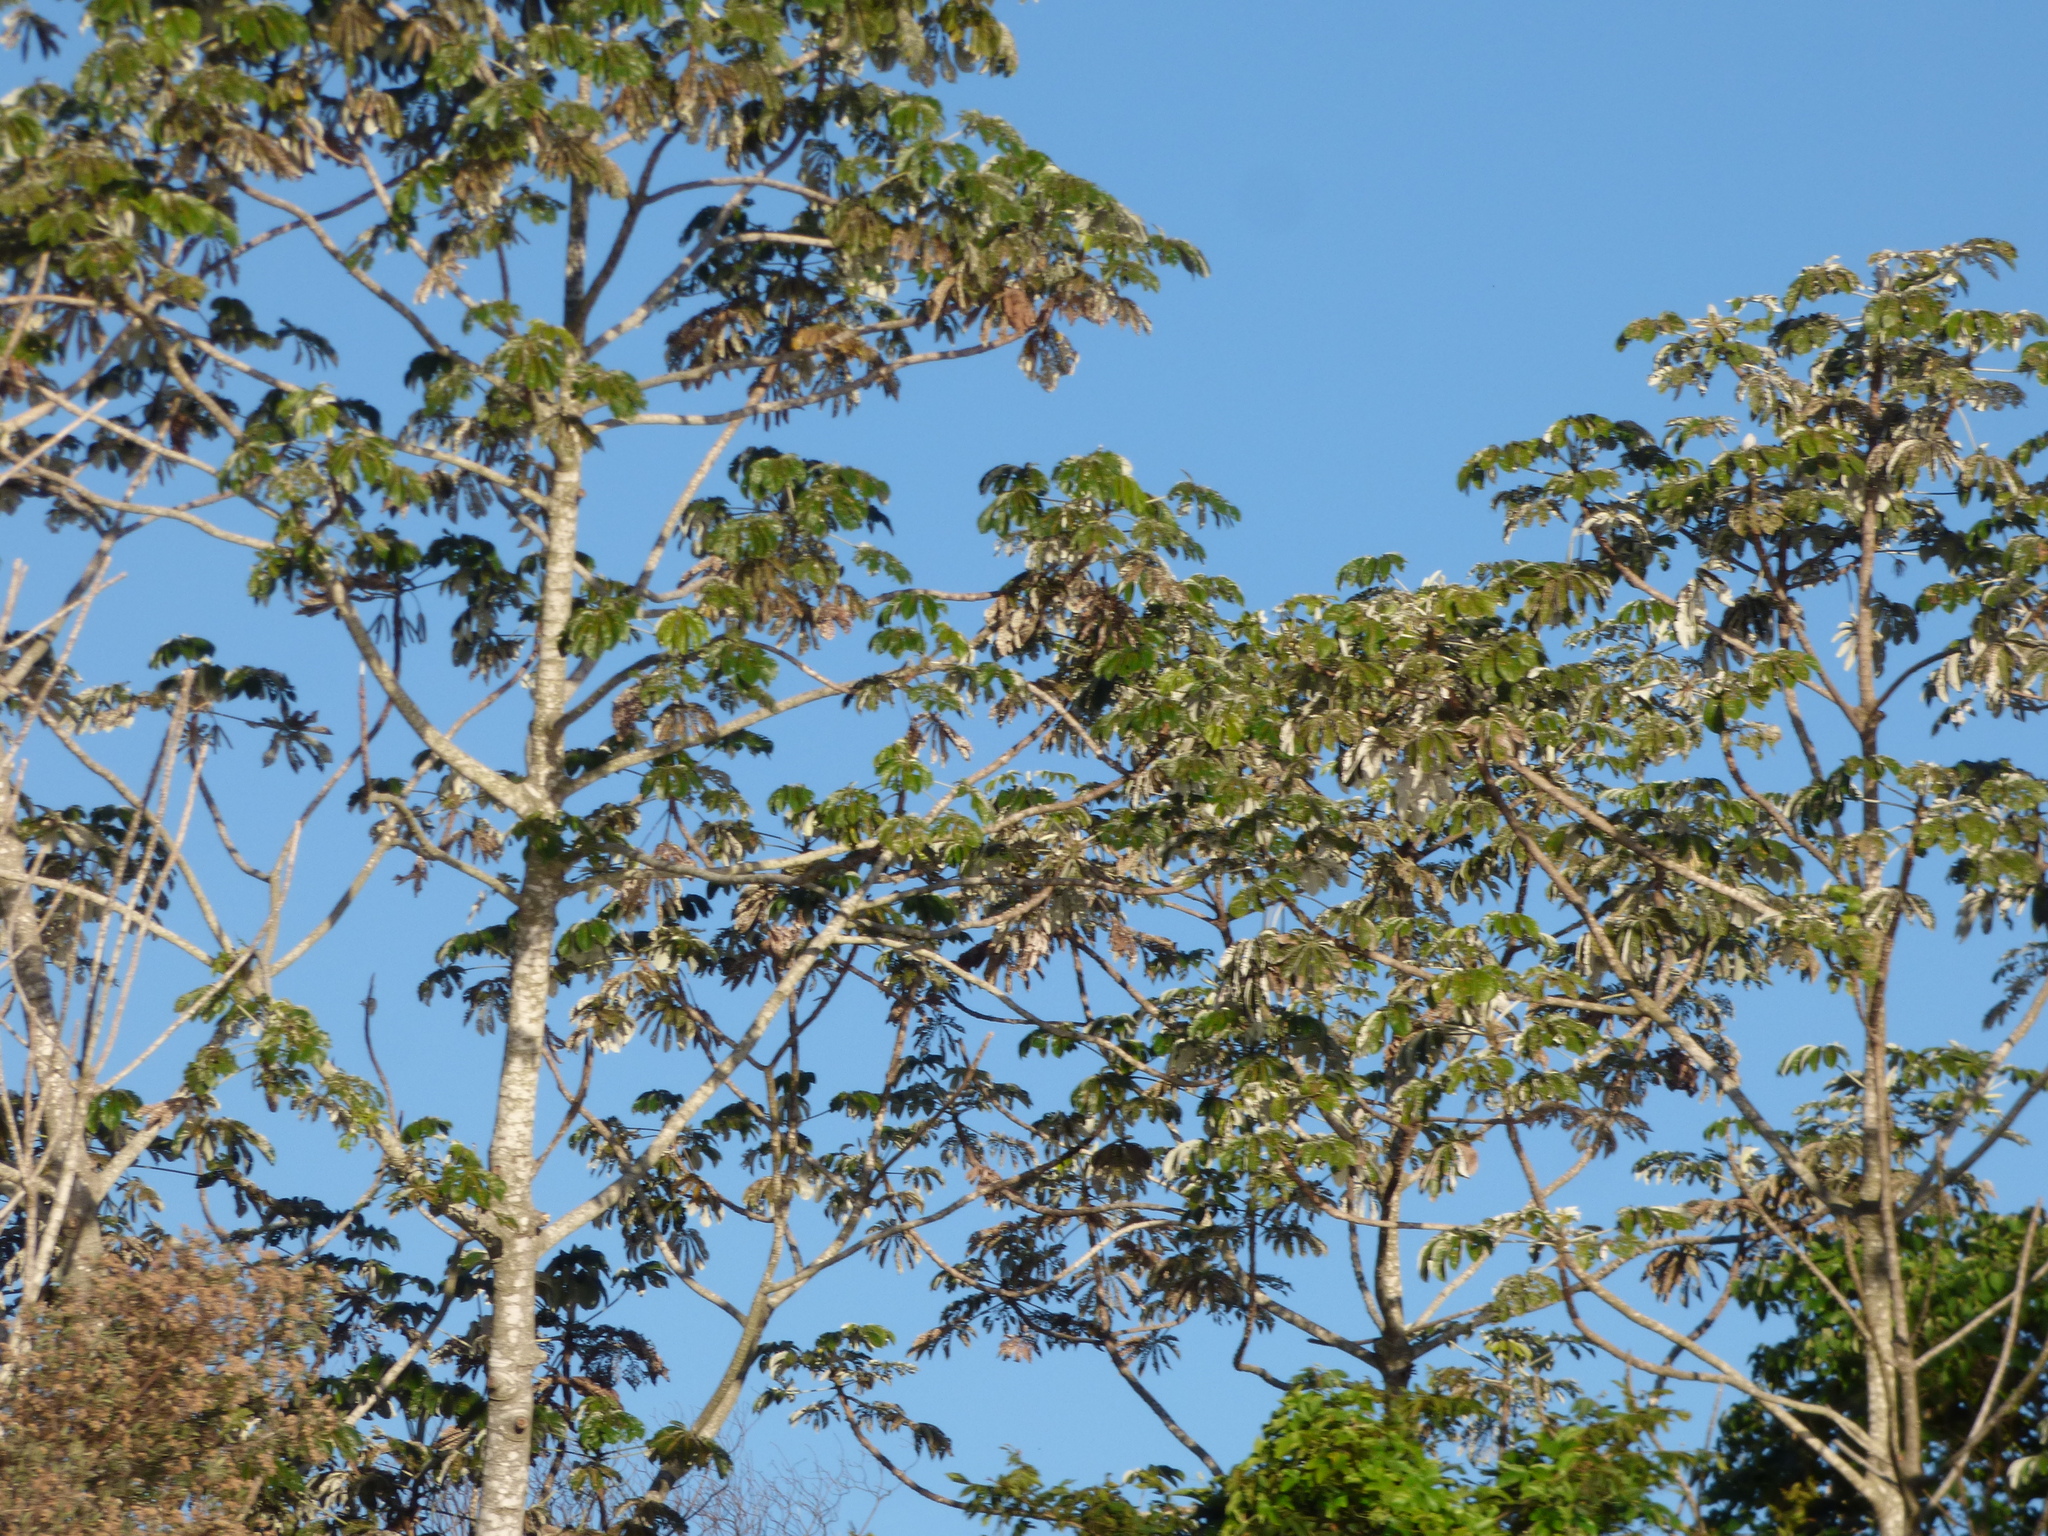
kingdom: Plantae
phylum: Tracheophyta
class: Magnoliopsida
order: Rosales
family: Urticaceae
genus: Cecropia
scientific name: Cecropia pachystachya
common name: Ambay pumpwood
